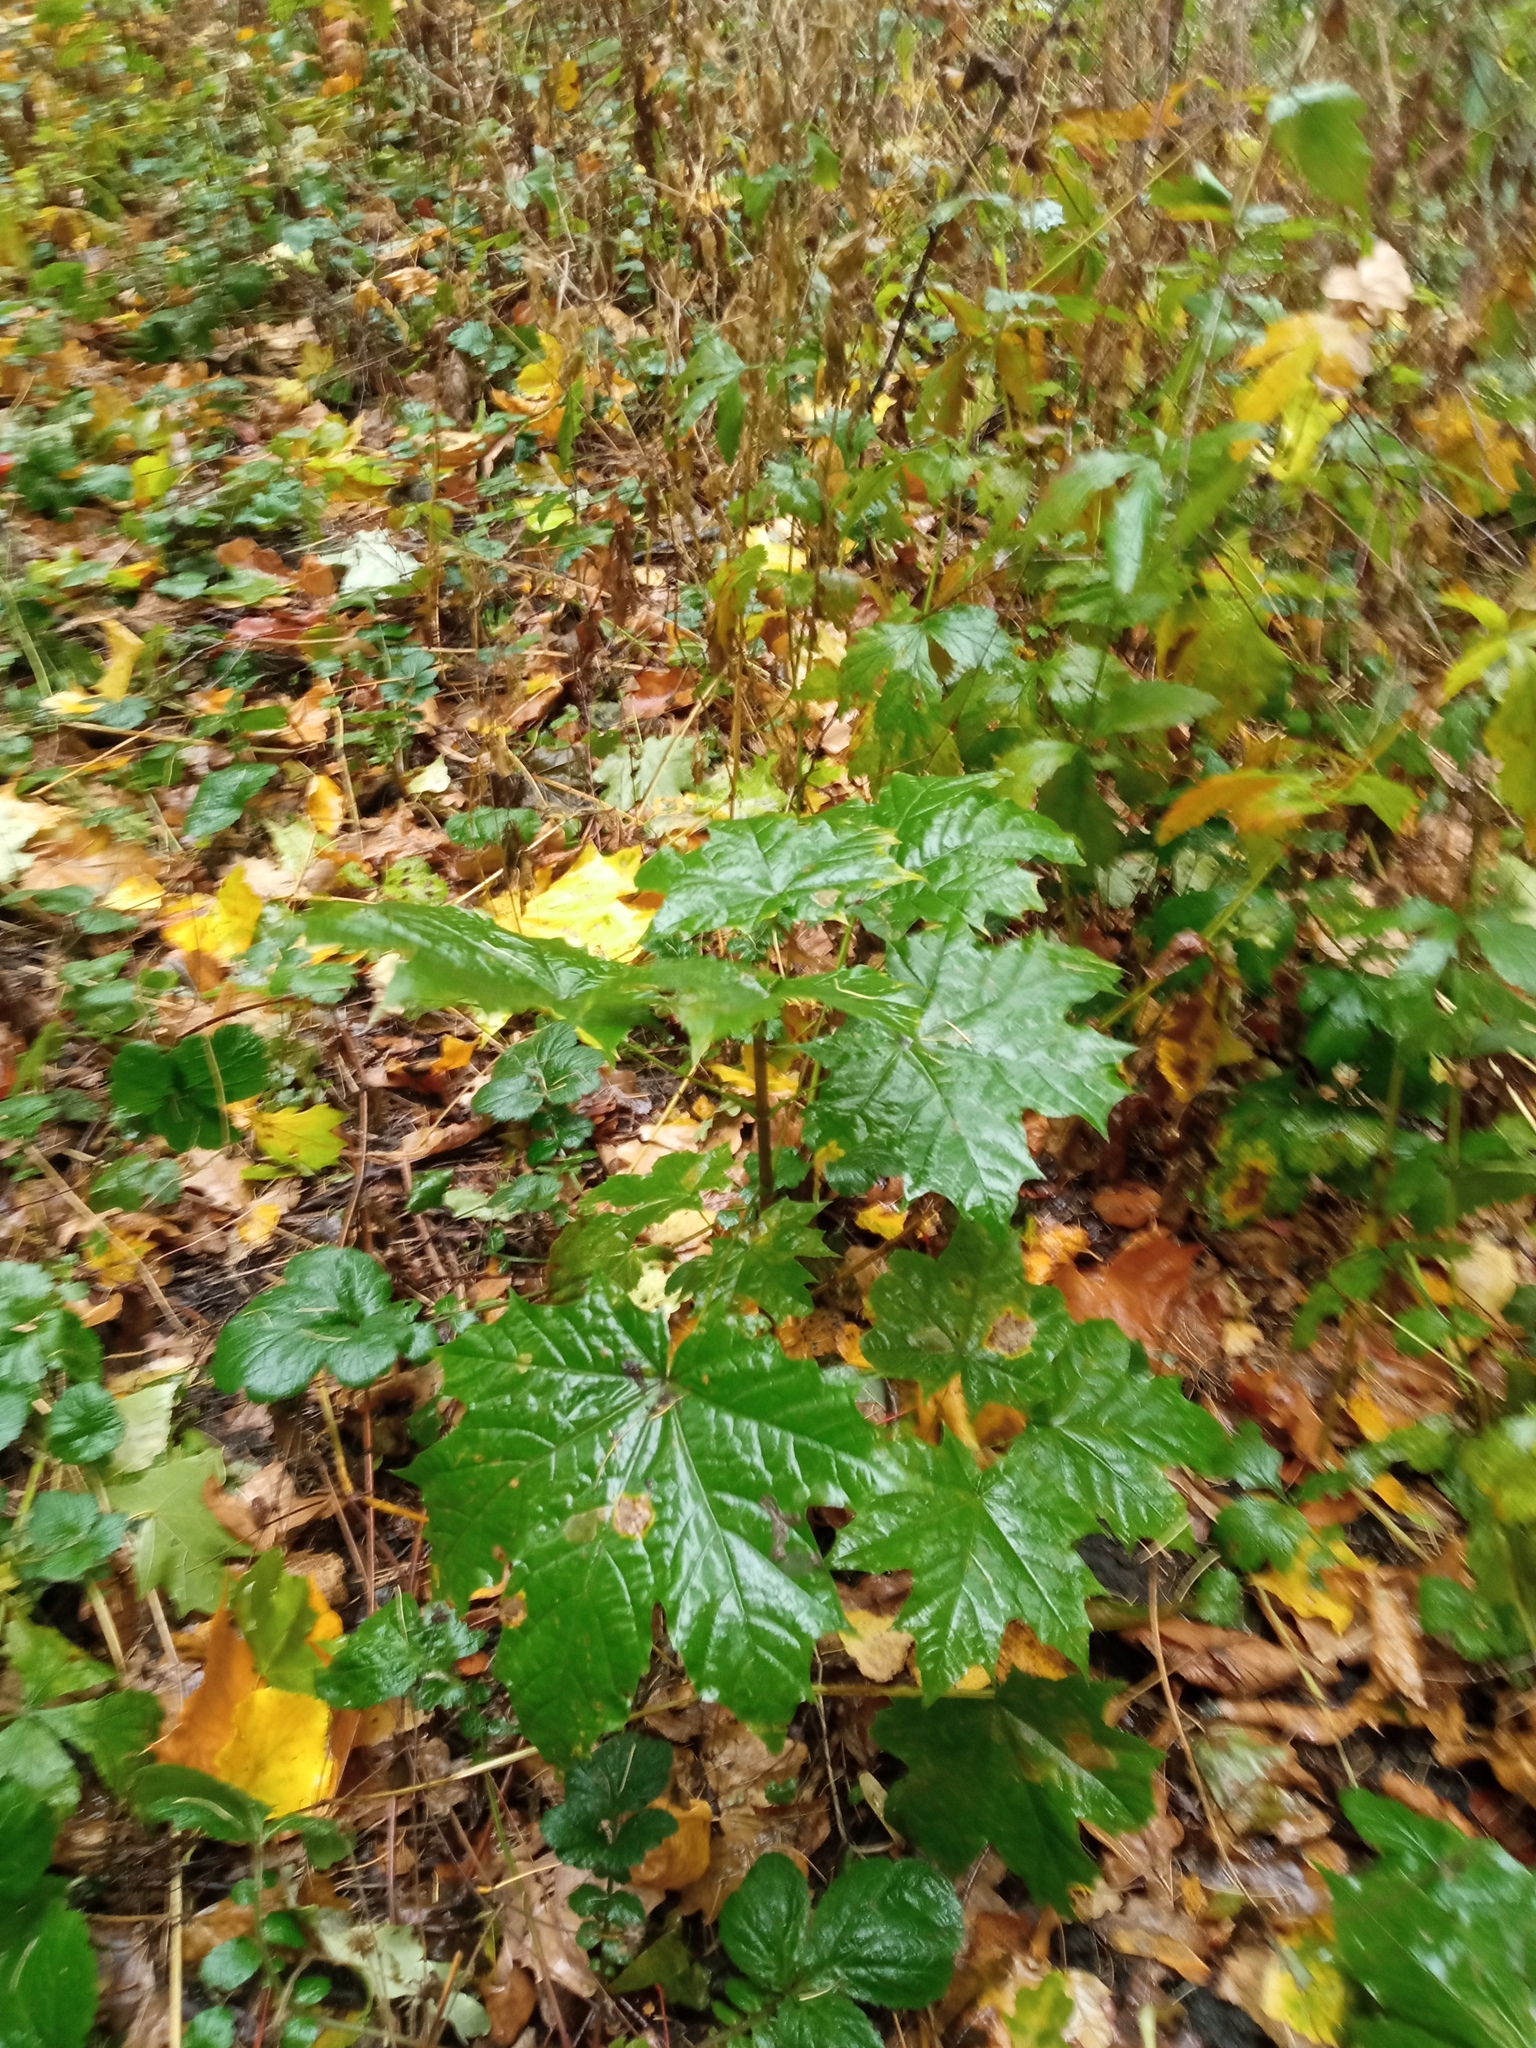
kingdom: Plantae
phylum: Tracheophyta
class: Magnoliopsida
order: Sapindales
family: Sapindaceae
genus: Acer
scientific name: Acer platanoides
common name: Norway maple
